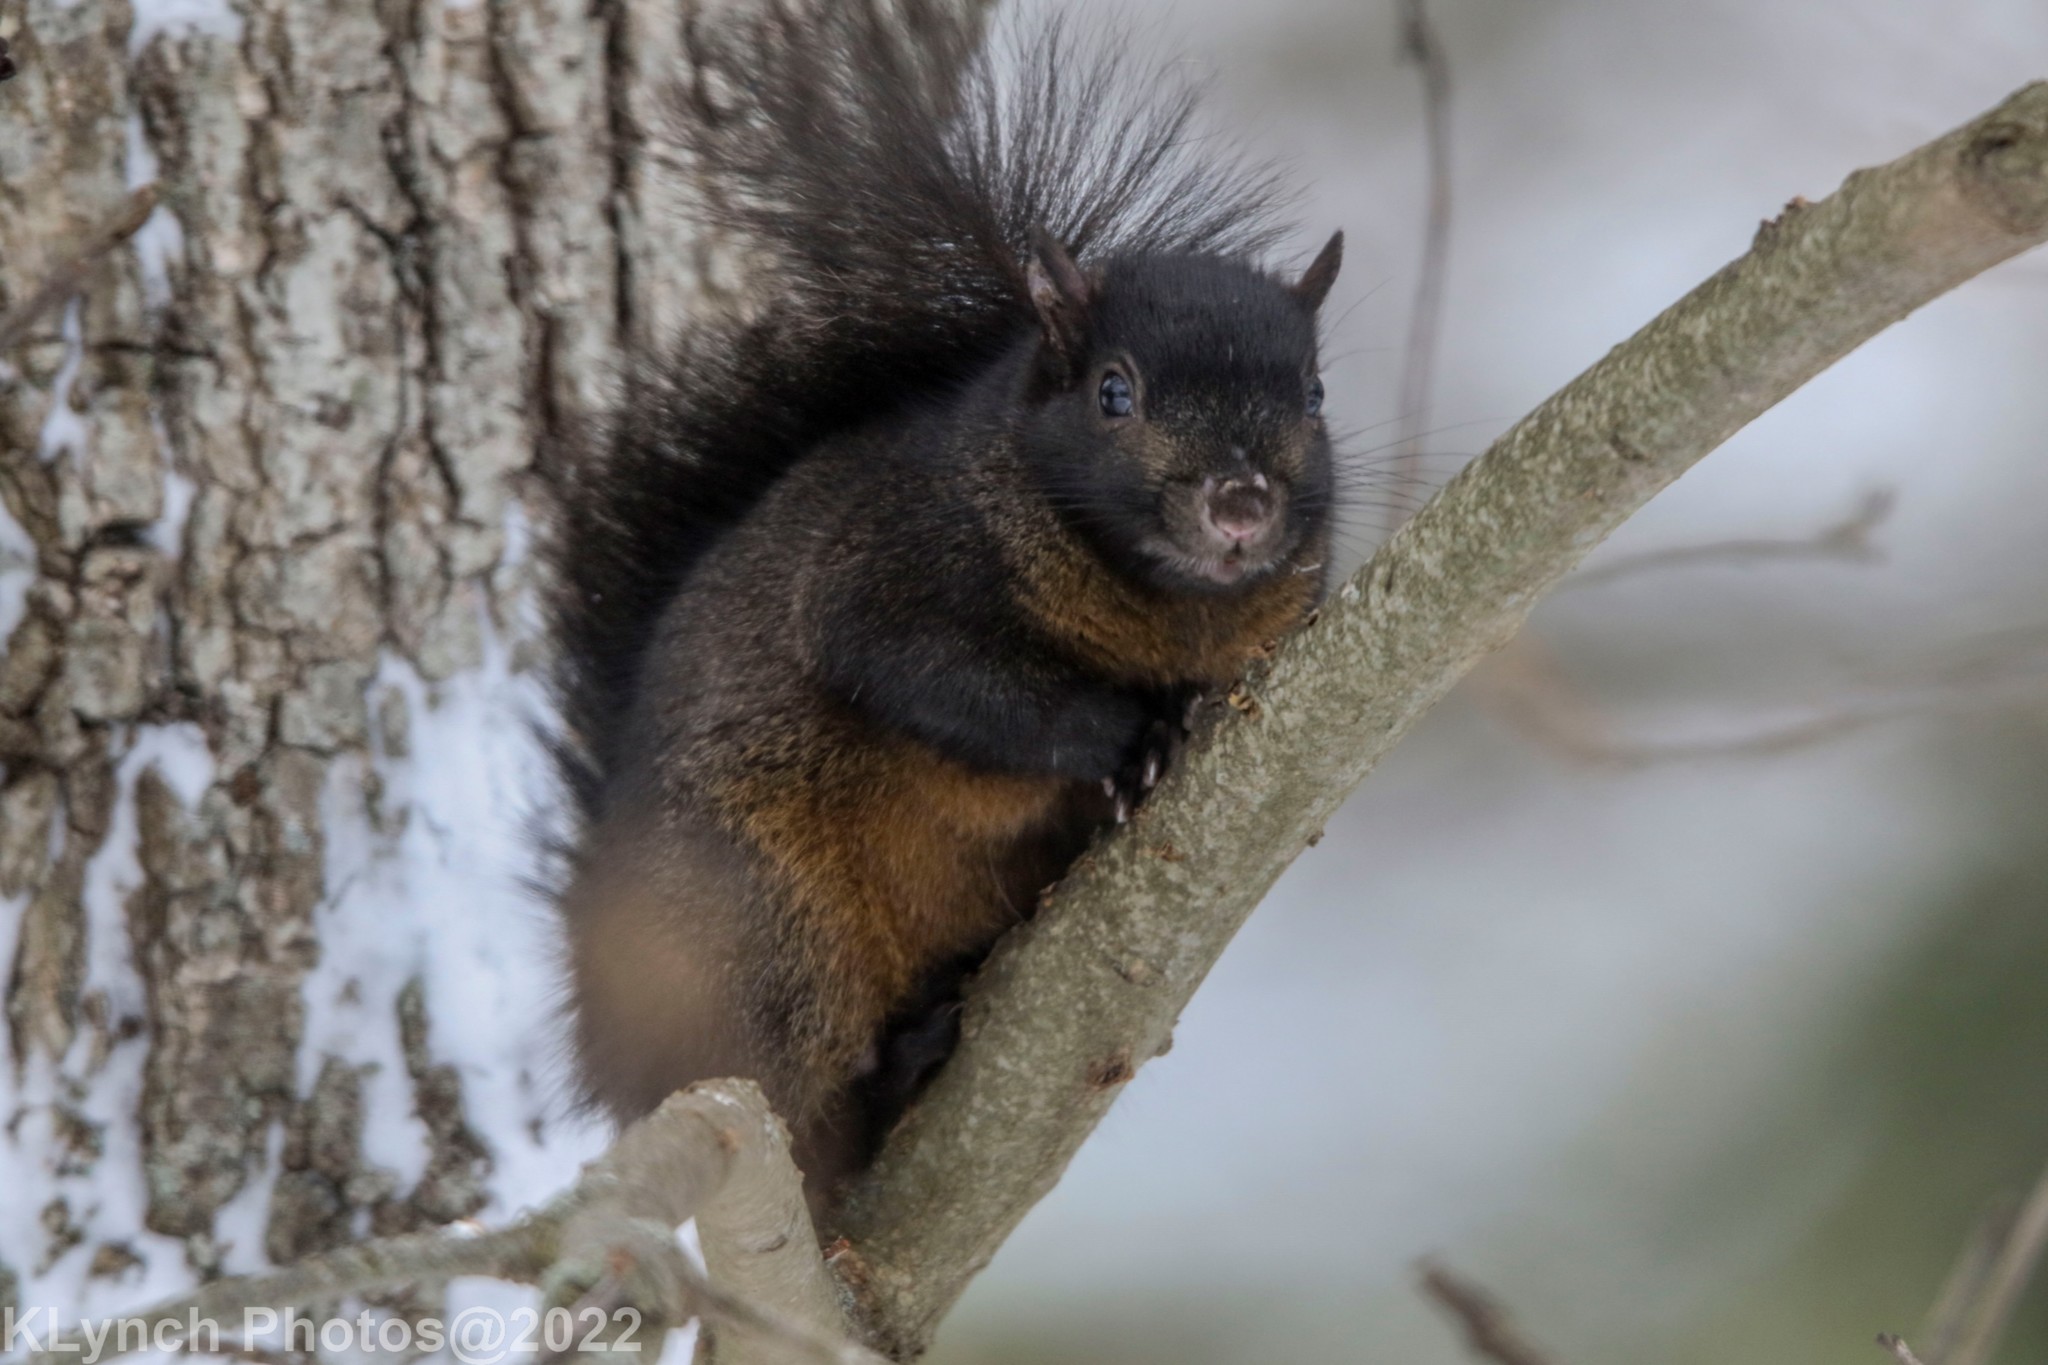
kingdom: Animalia
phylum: Chordata
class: Mammalia
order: Rodentia
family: Sciuridae
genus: Sciurus
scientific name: Sciurus carolinensis
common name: Eastern gray squirrel
